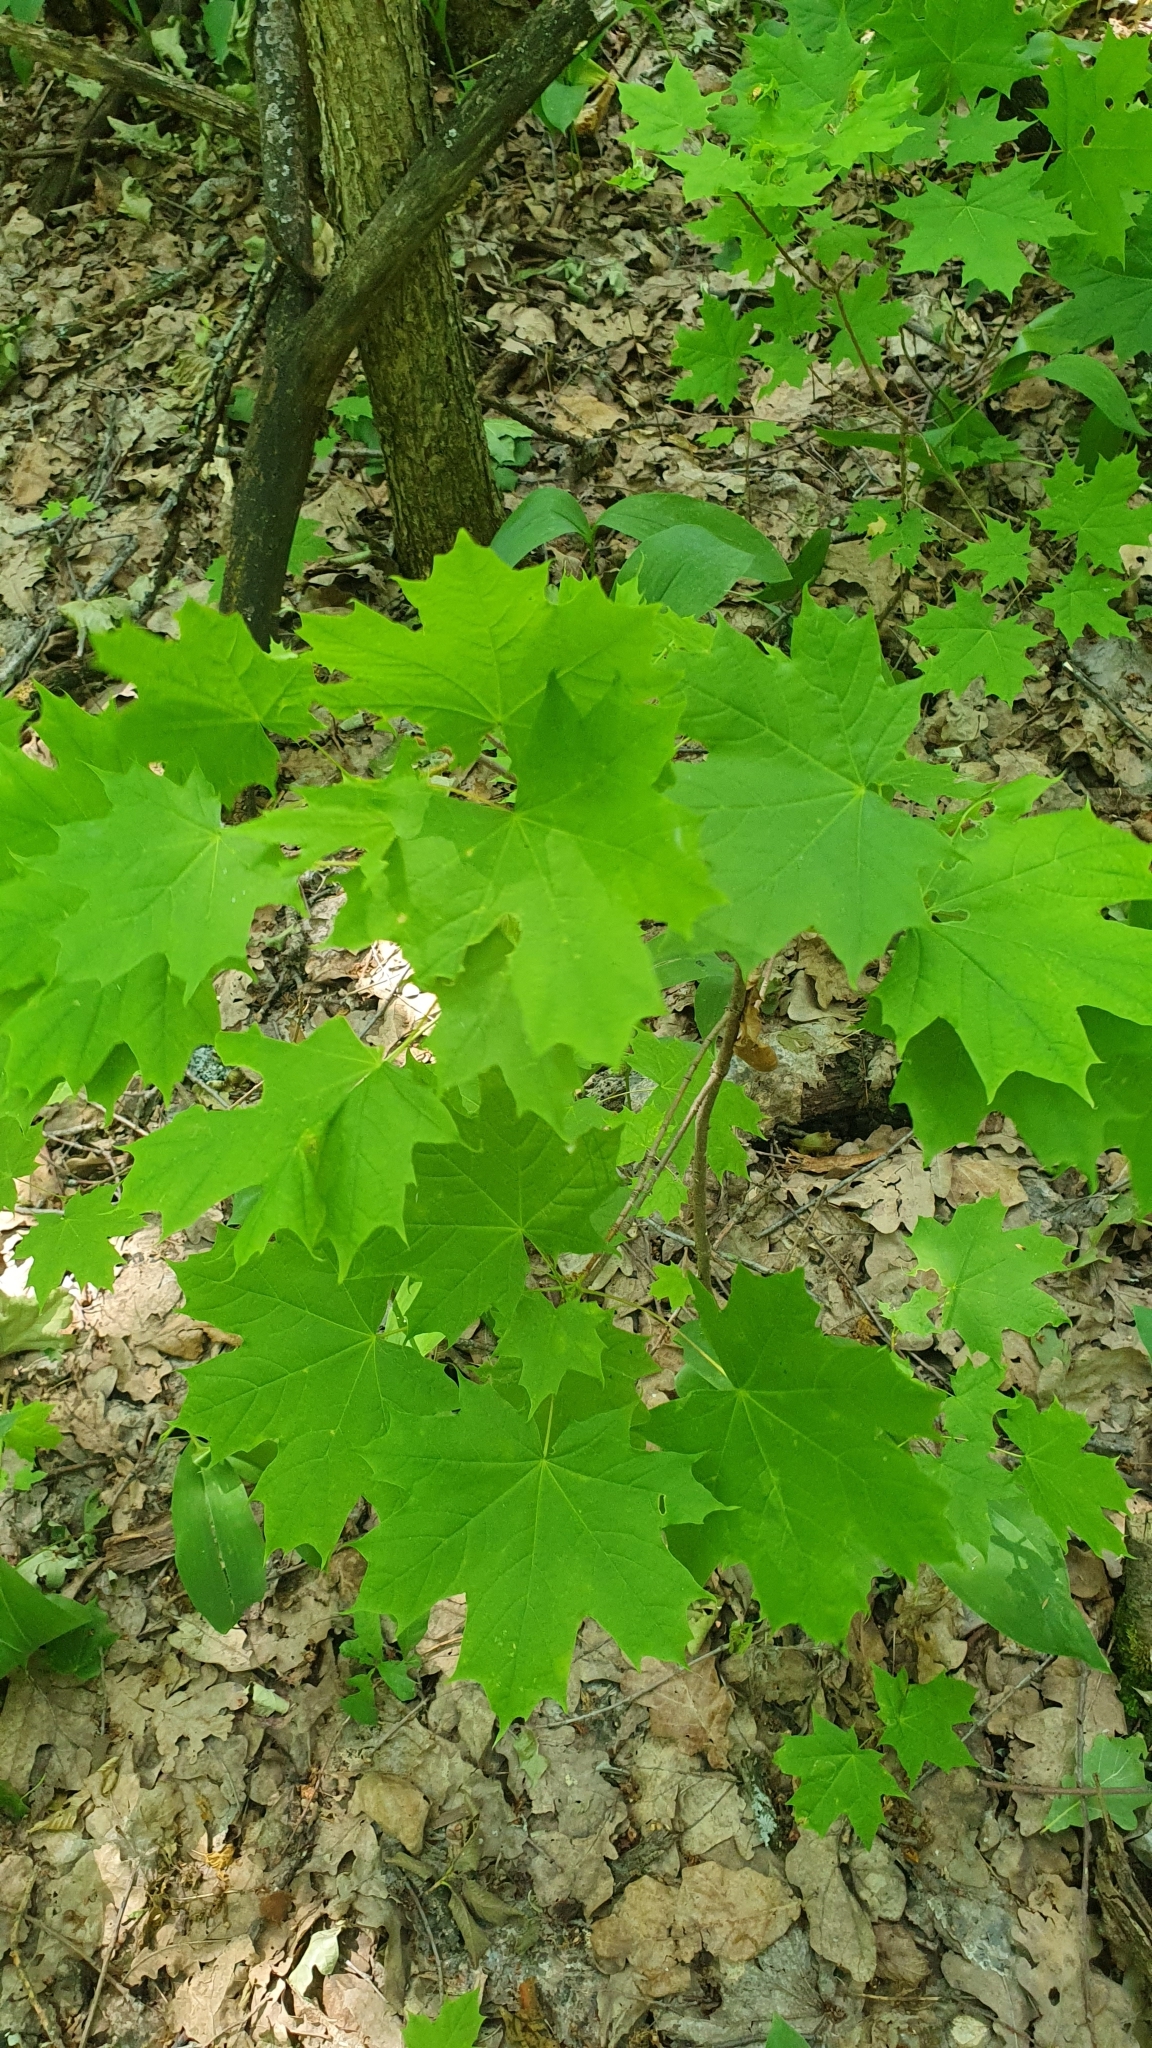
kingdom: Plantae
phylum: Tracheophyta
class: Magnoliopsida
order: Sapindales
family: Sapindaceae
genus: Acer
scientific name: Acer platanoides
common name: Norway maple
